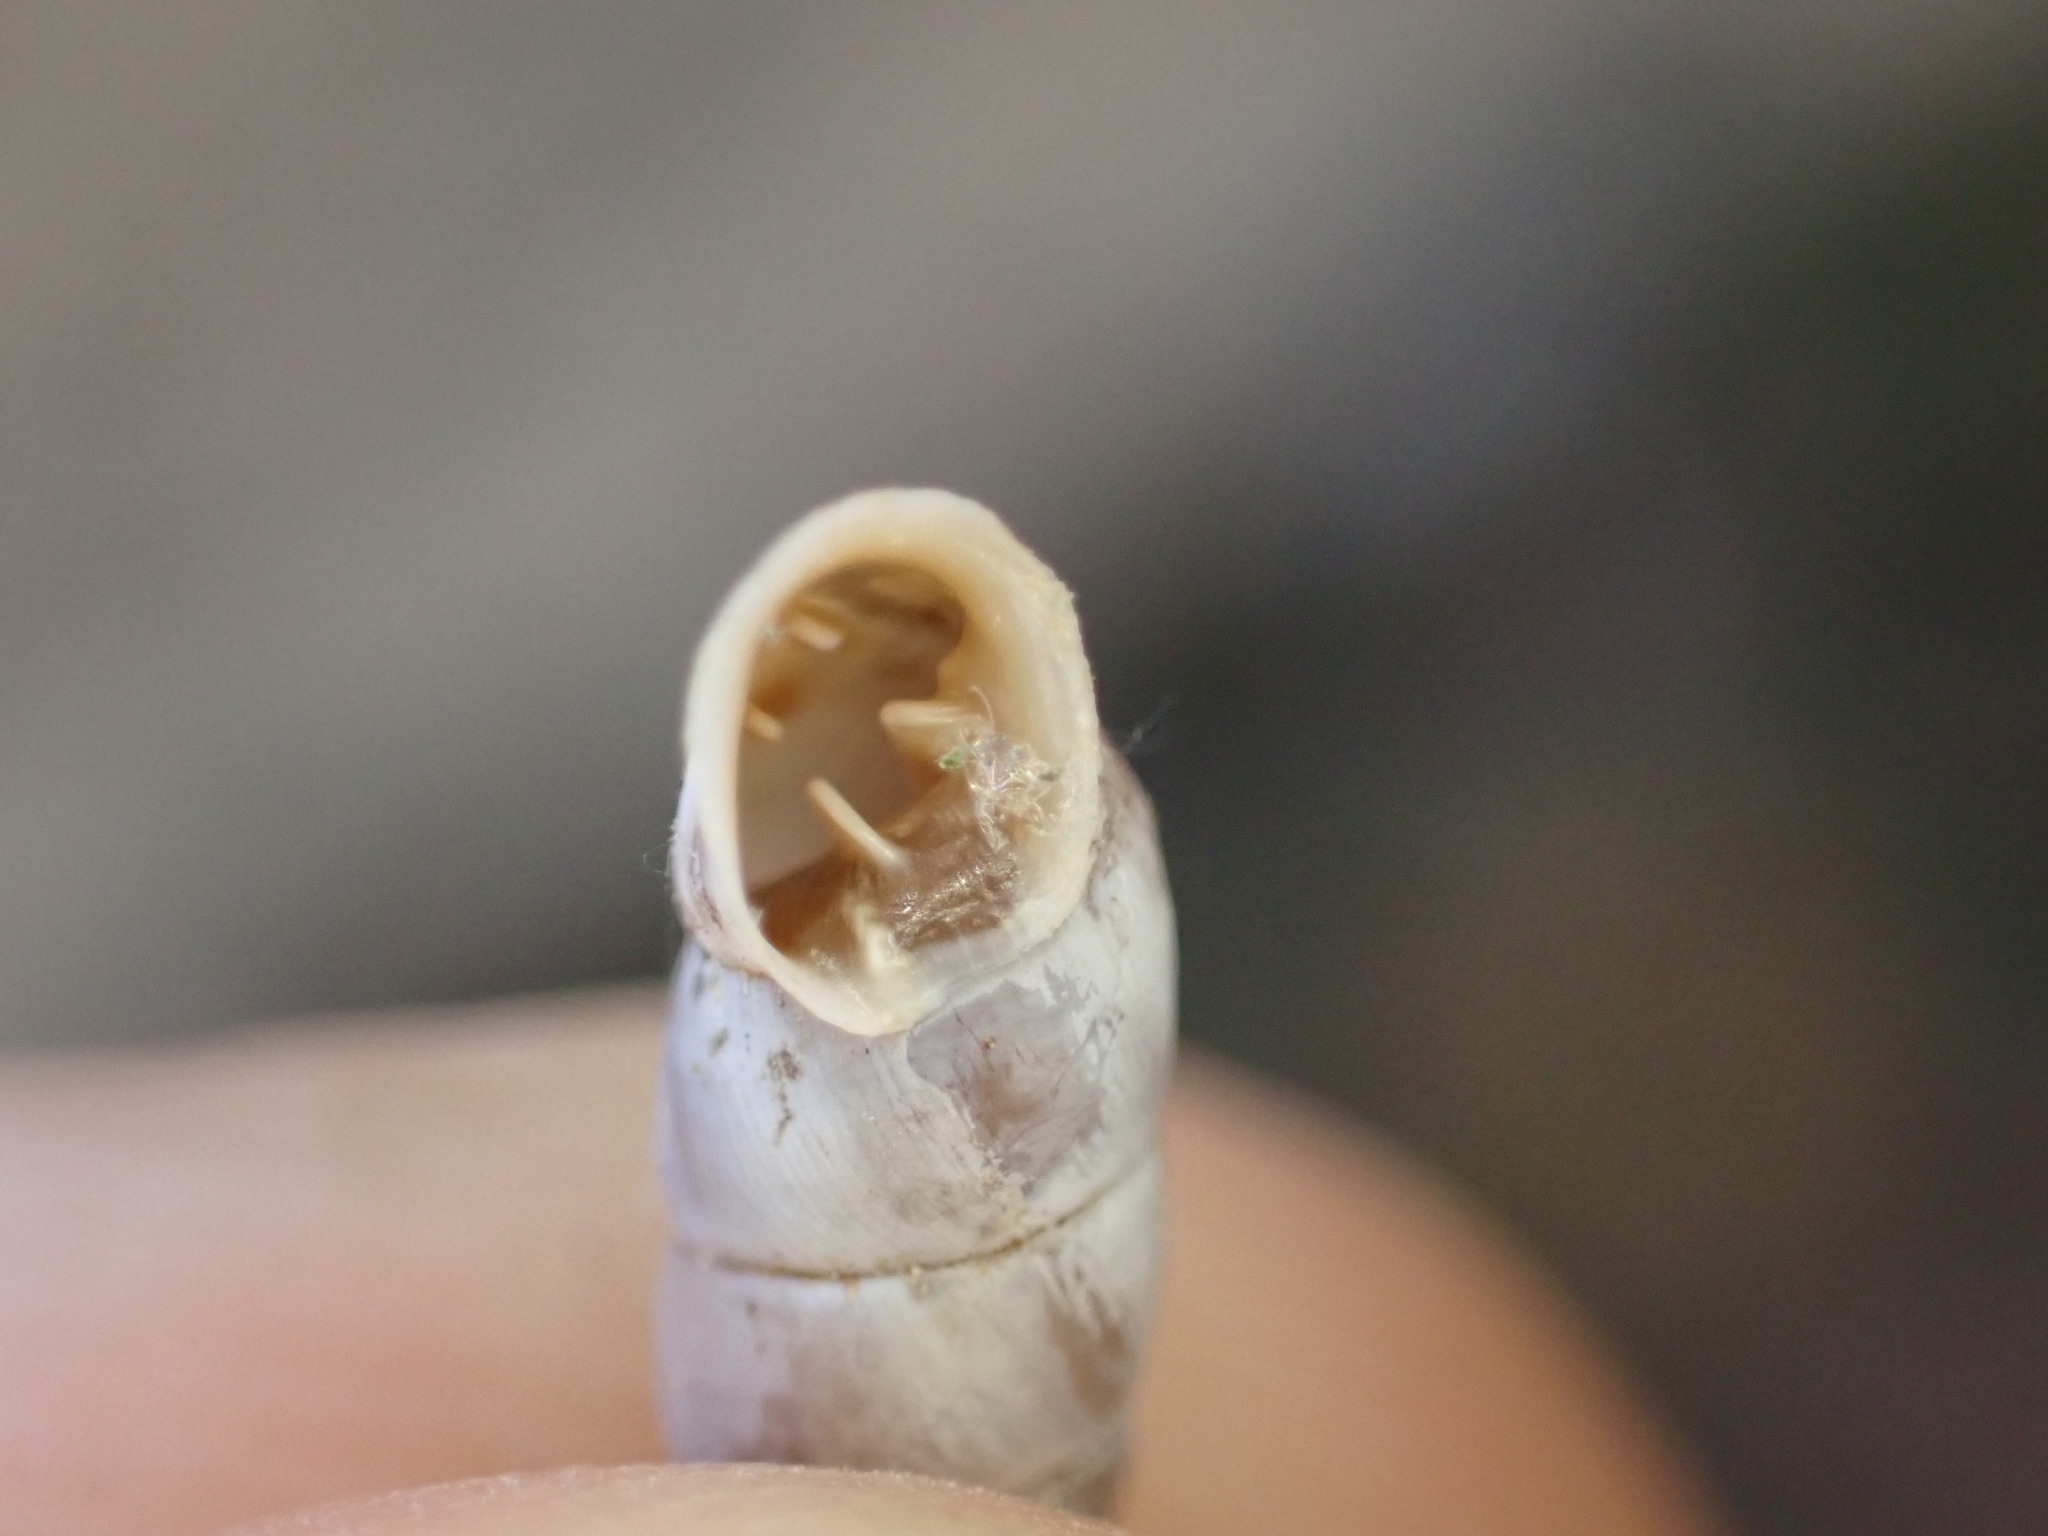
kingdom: Animalia
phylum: Mollusca
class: Gastropoda
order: Stylommatophora
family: Chondrinidae
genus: Solatopupa
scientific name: Solatopupa similis
